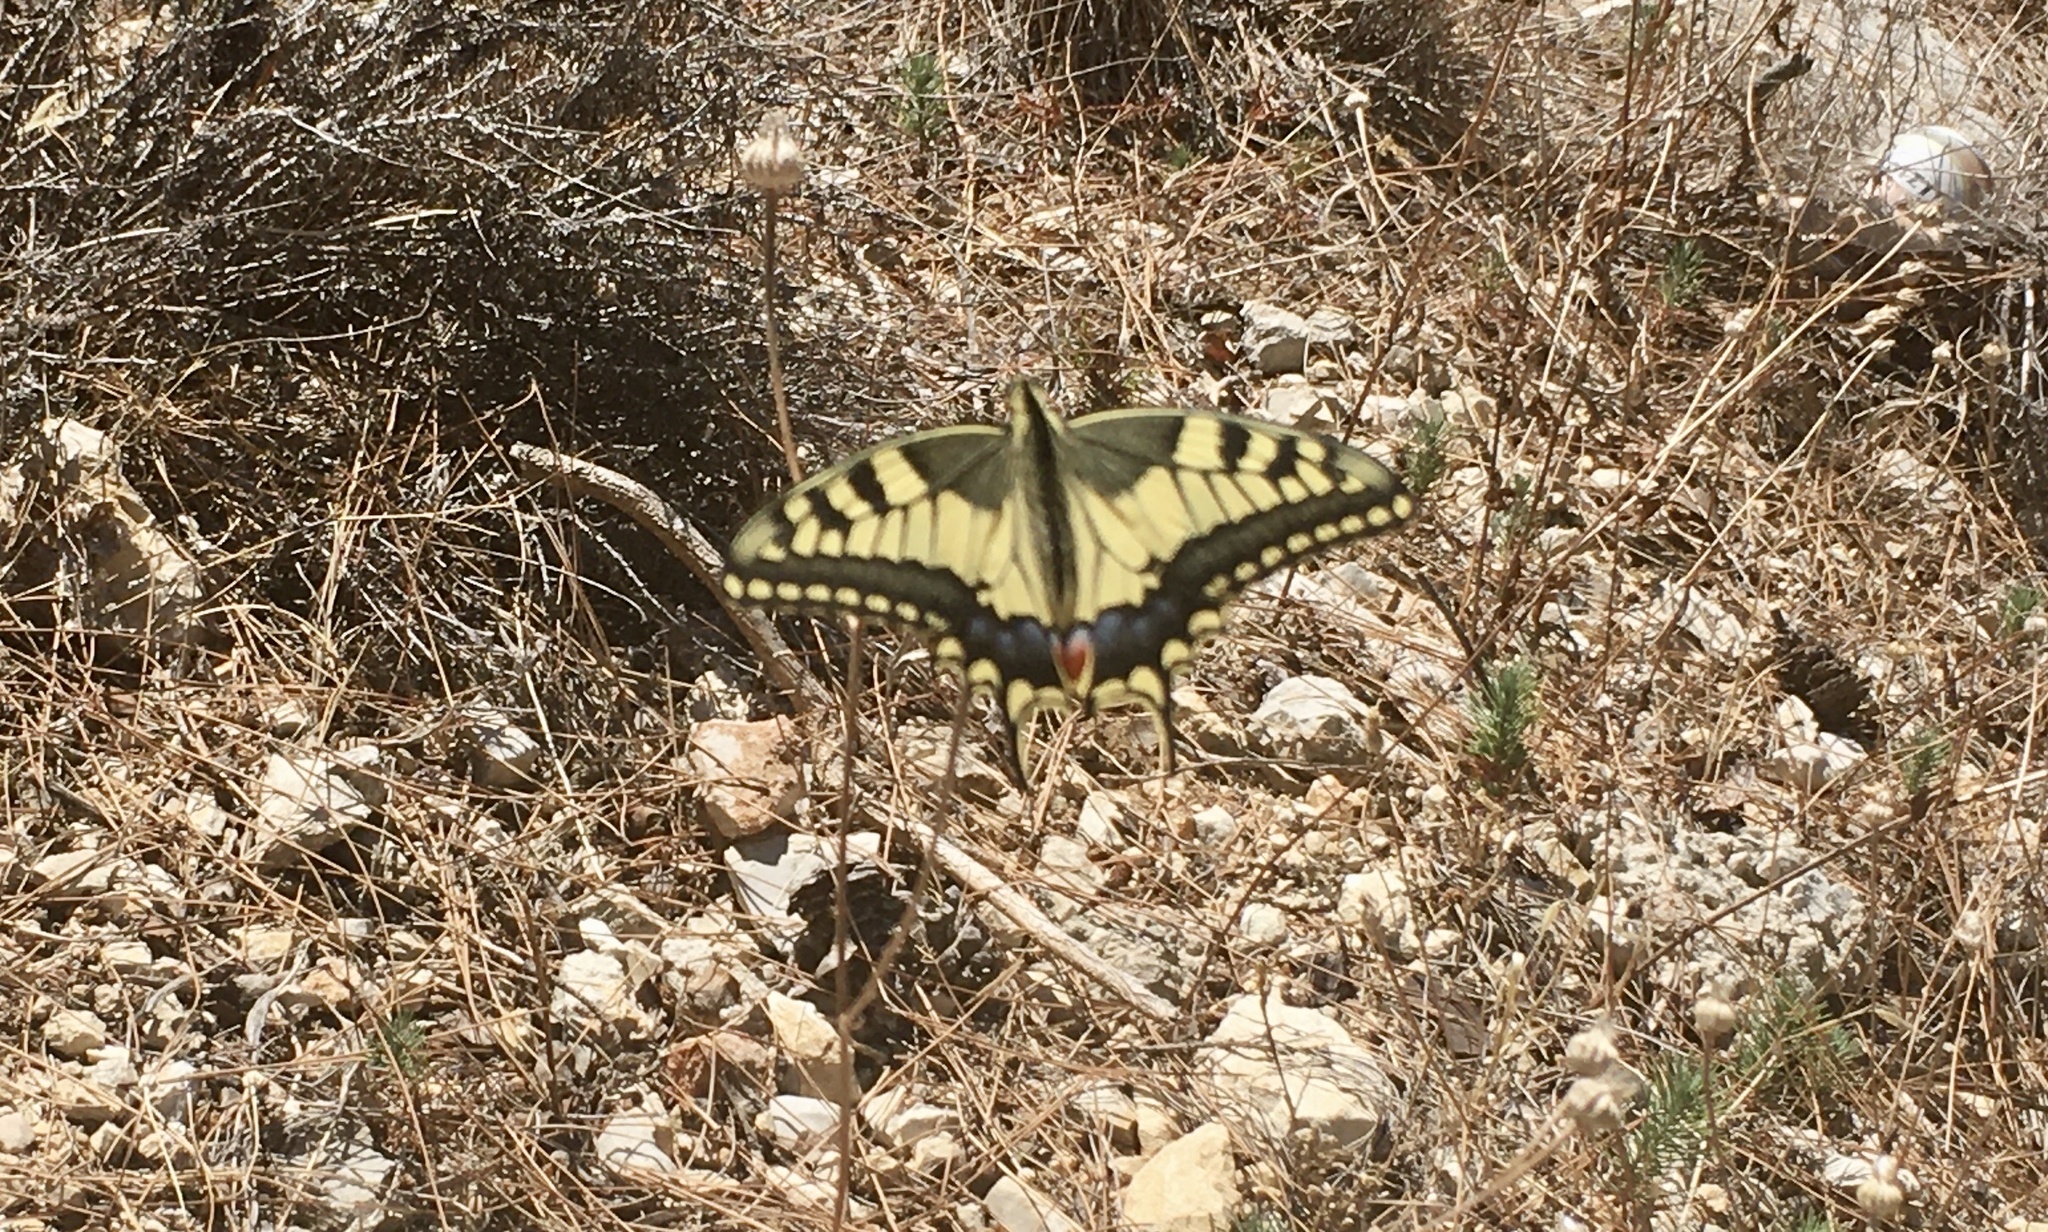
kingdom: Animalia
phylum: Arthropoda
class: Insecta
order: Lepidoptera
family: Papilionidae
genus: Papilio
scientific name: Papilio machaon
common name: Swallowtail
